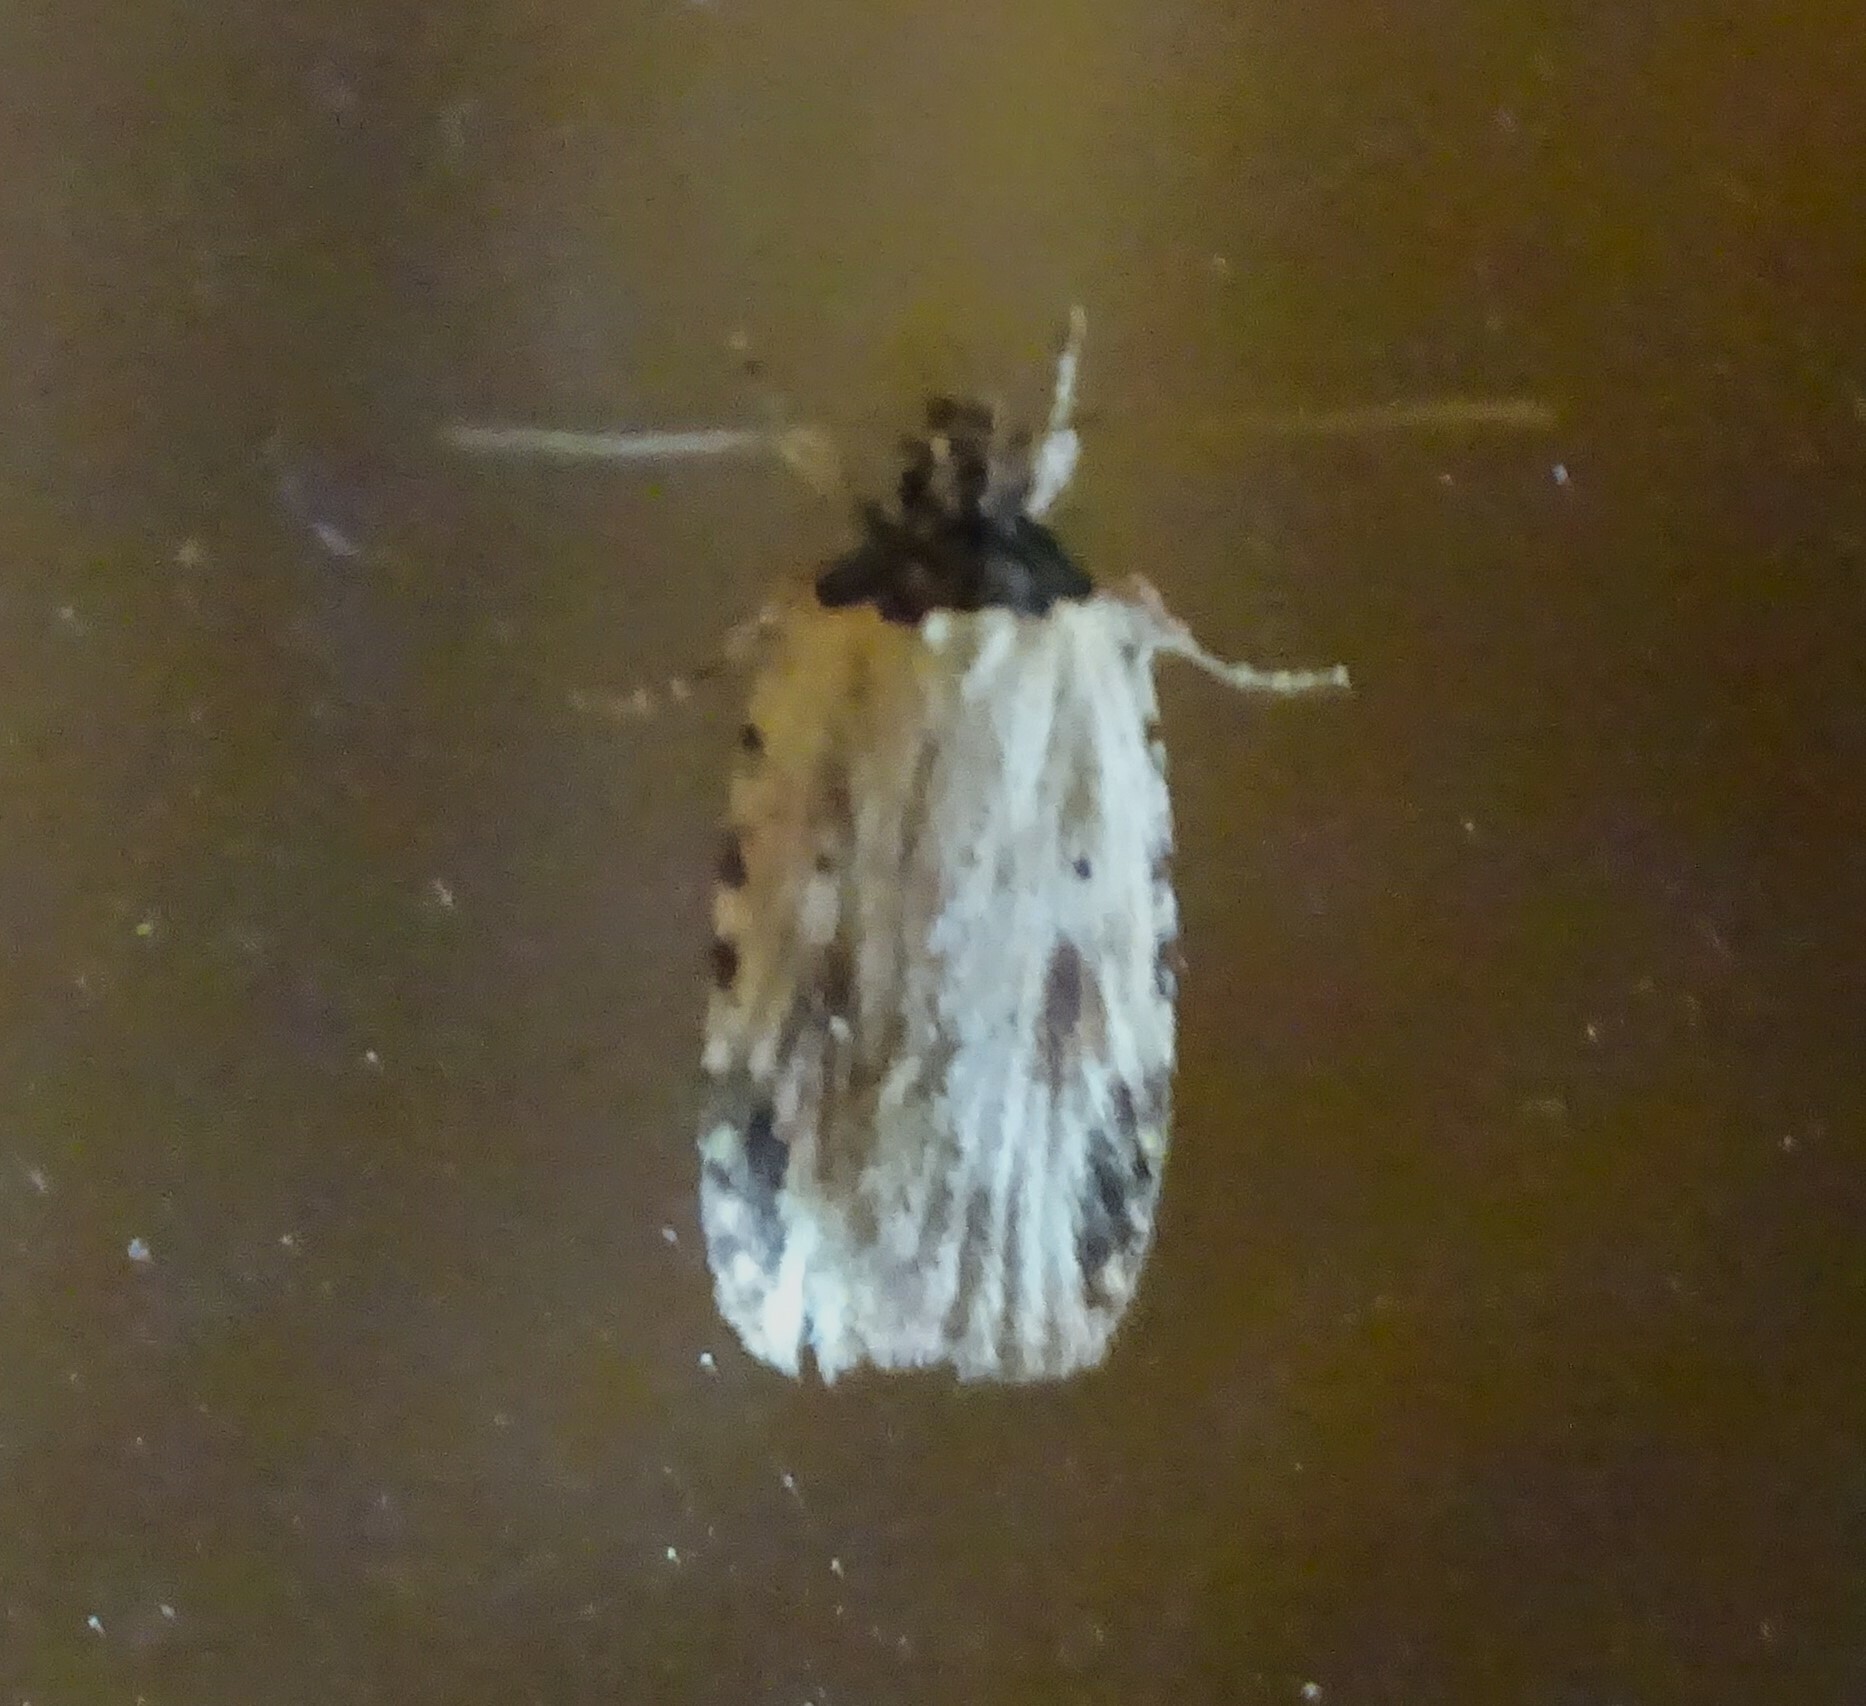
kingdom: Animalia
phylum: Arthropoda
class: Insecta
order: Lepidoptera
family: Depressariidae
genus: Agonopterix
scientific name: Agonopterix atrodorsella
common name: Beggartick leaffolder
